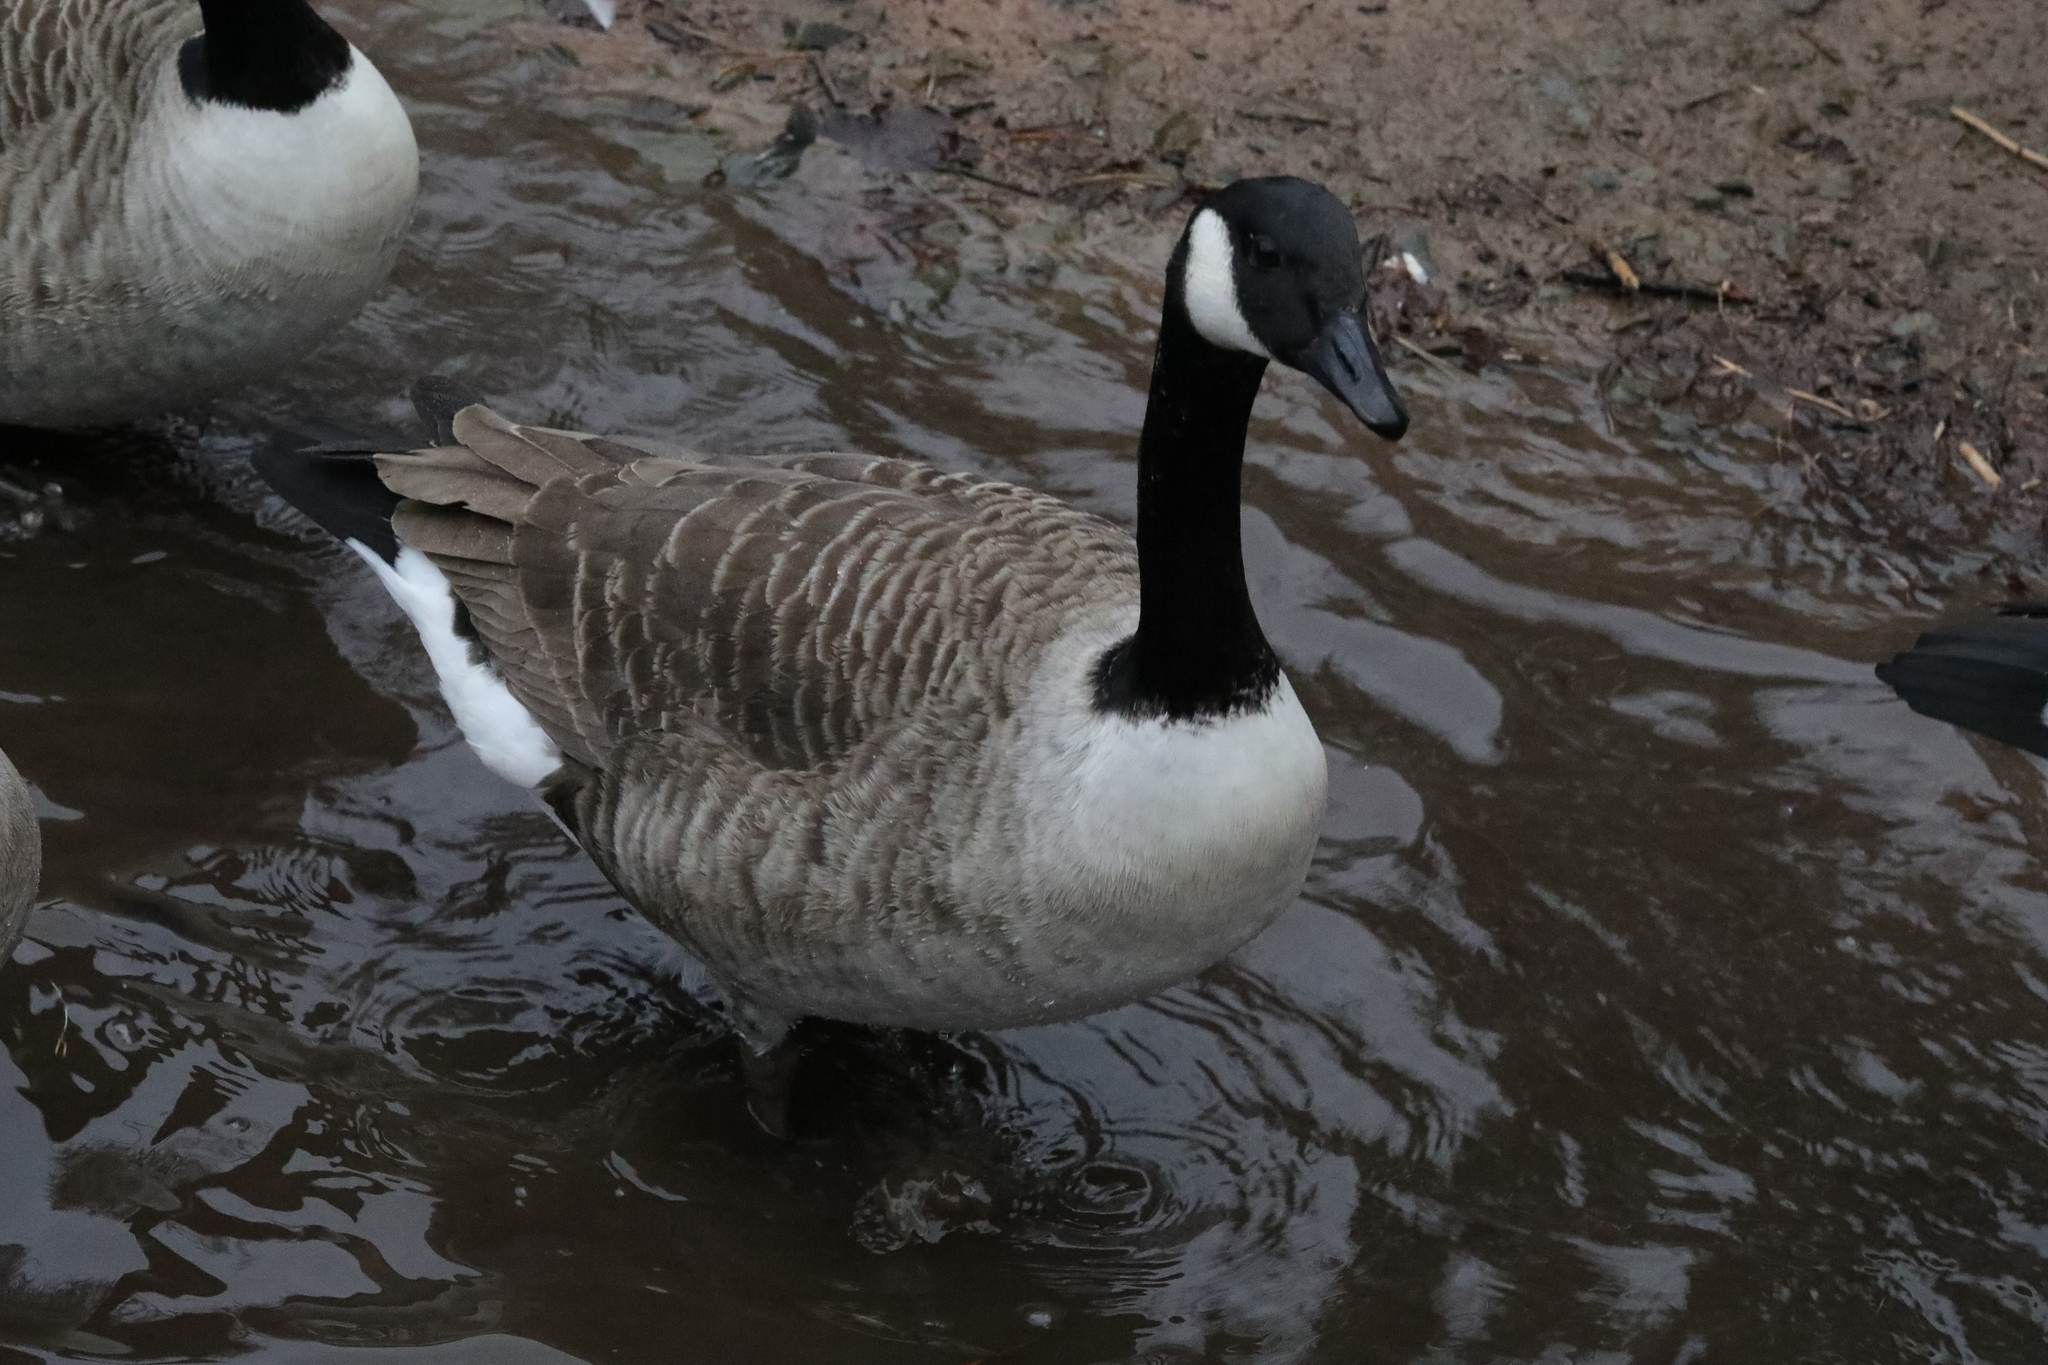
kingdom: Animalia
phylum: Chordata
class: Aves
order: Anseriformes
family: Anatidae
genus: Branta
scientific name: Branta canadensis
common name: Canada goose
